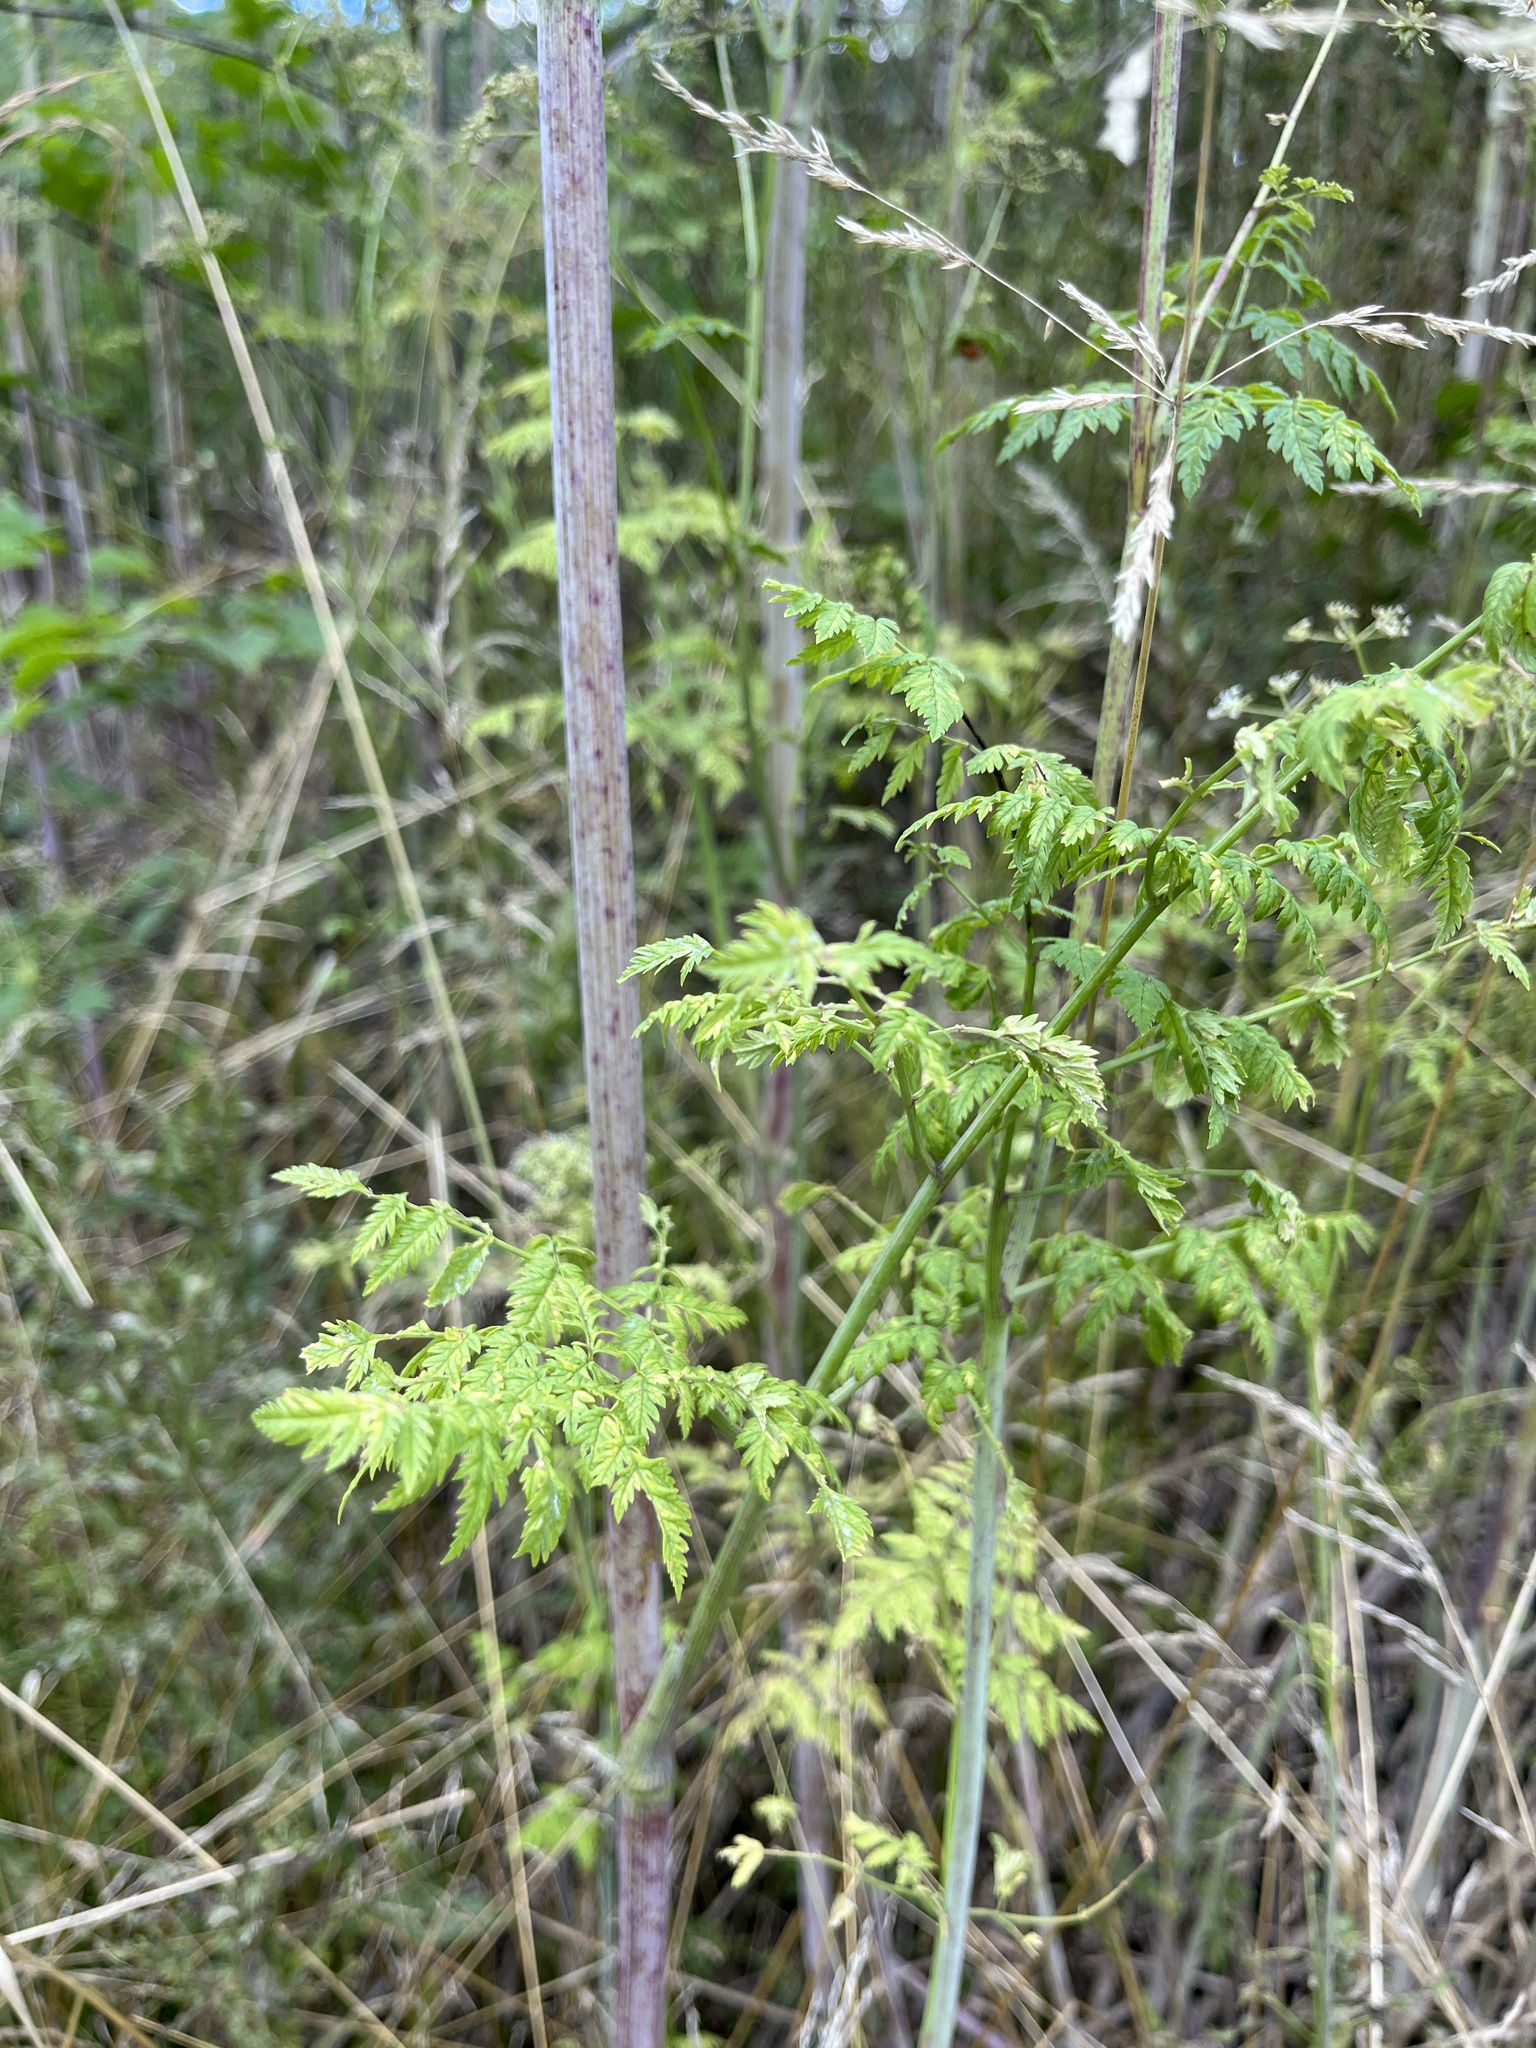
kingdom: Plantae
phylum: Tracheophyta
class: Magnoliopsida
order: Apiales
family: Apiaceae
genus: Conium
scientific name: Conium maculatum
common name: Hemlock
